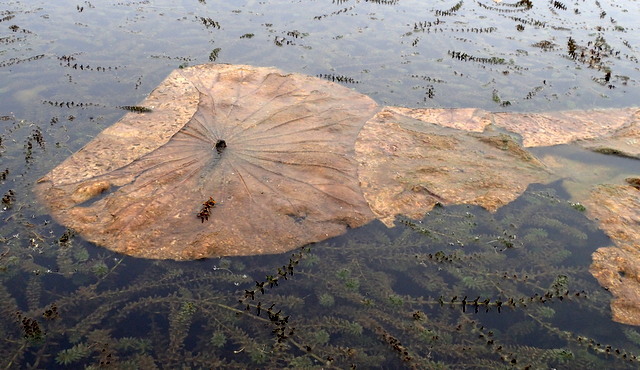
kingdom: Plantae
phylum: Tracheophyta
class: Magnoliopsida
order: Proteales
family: Nelumbonaceae
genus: Nelumbo
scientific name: Nelumbo lutea
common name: American lotus
